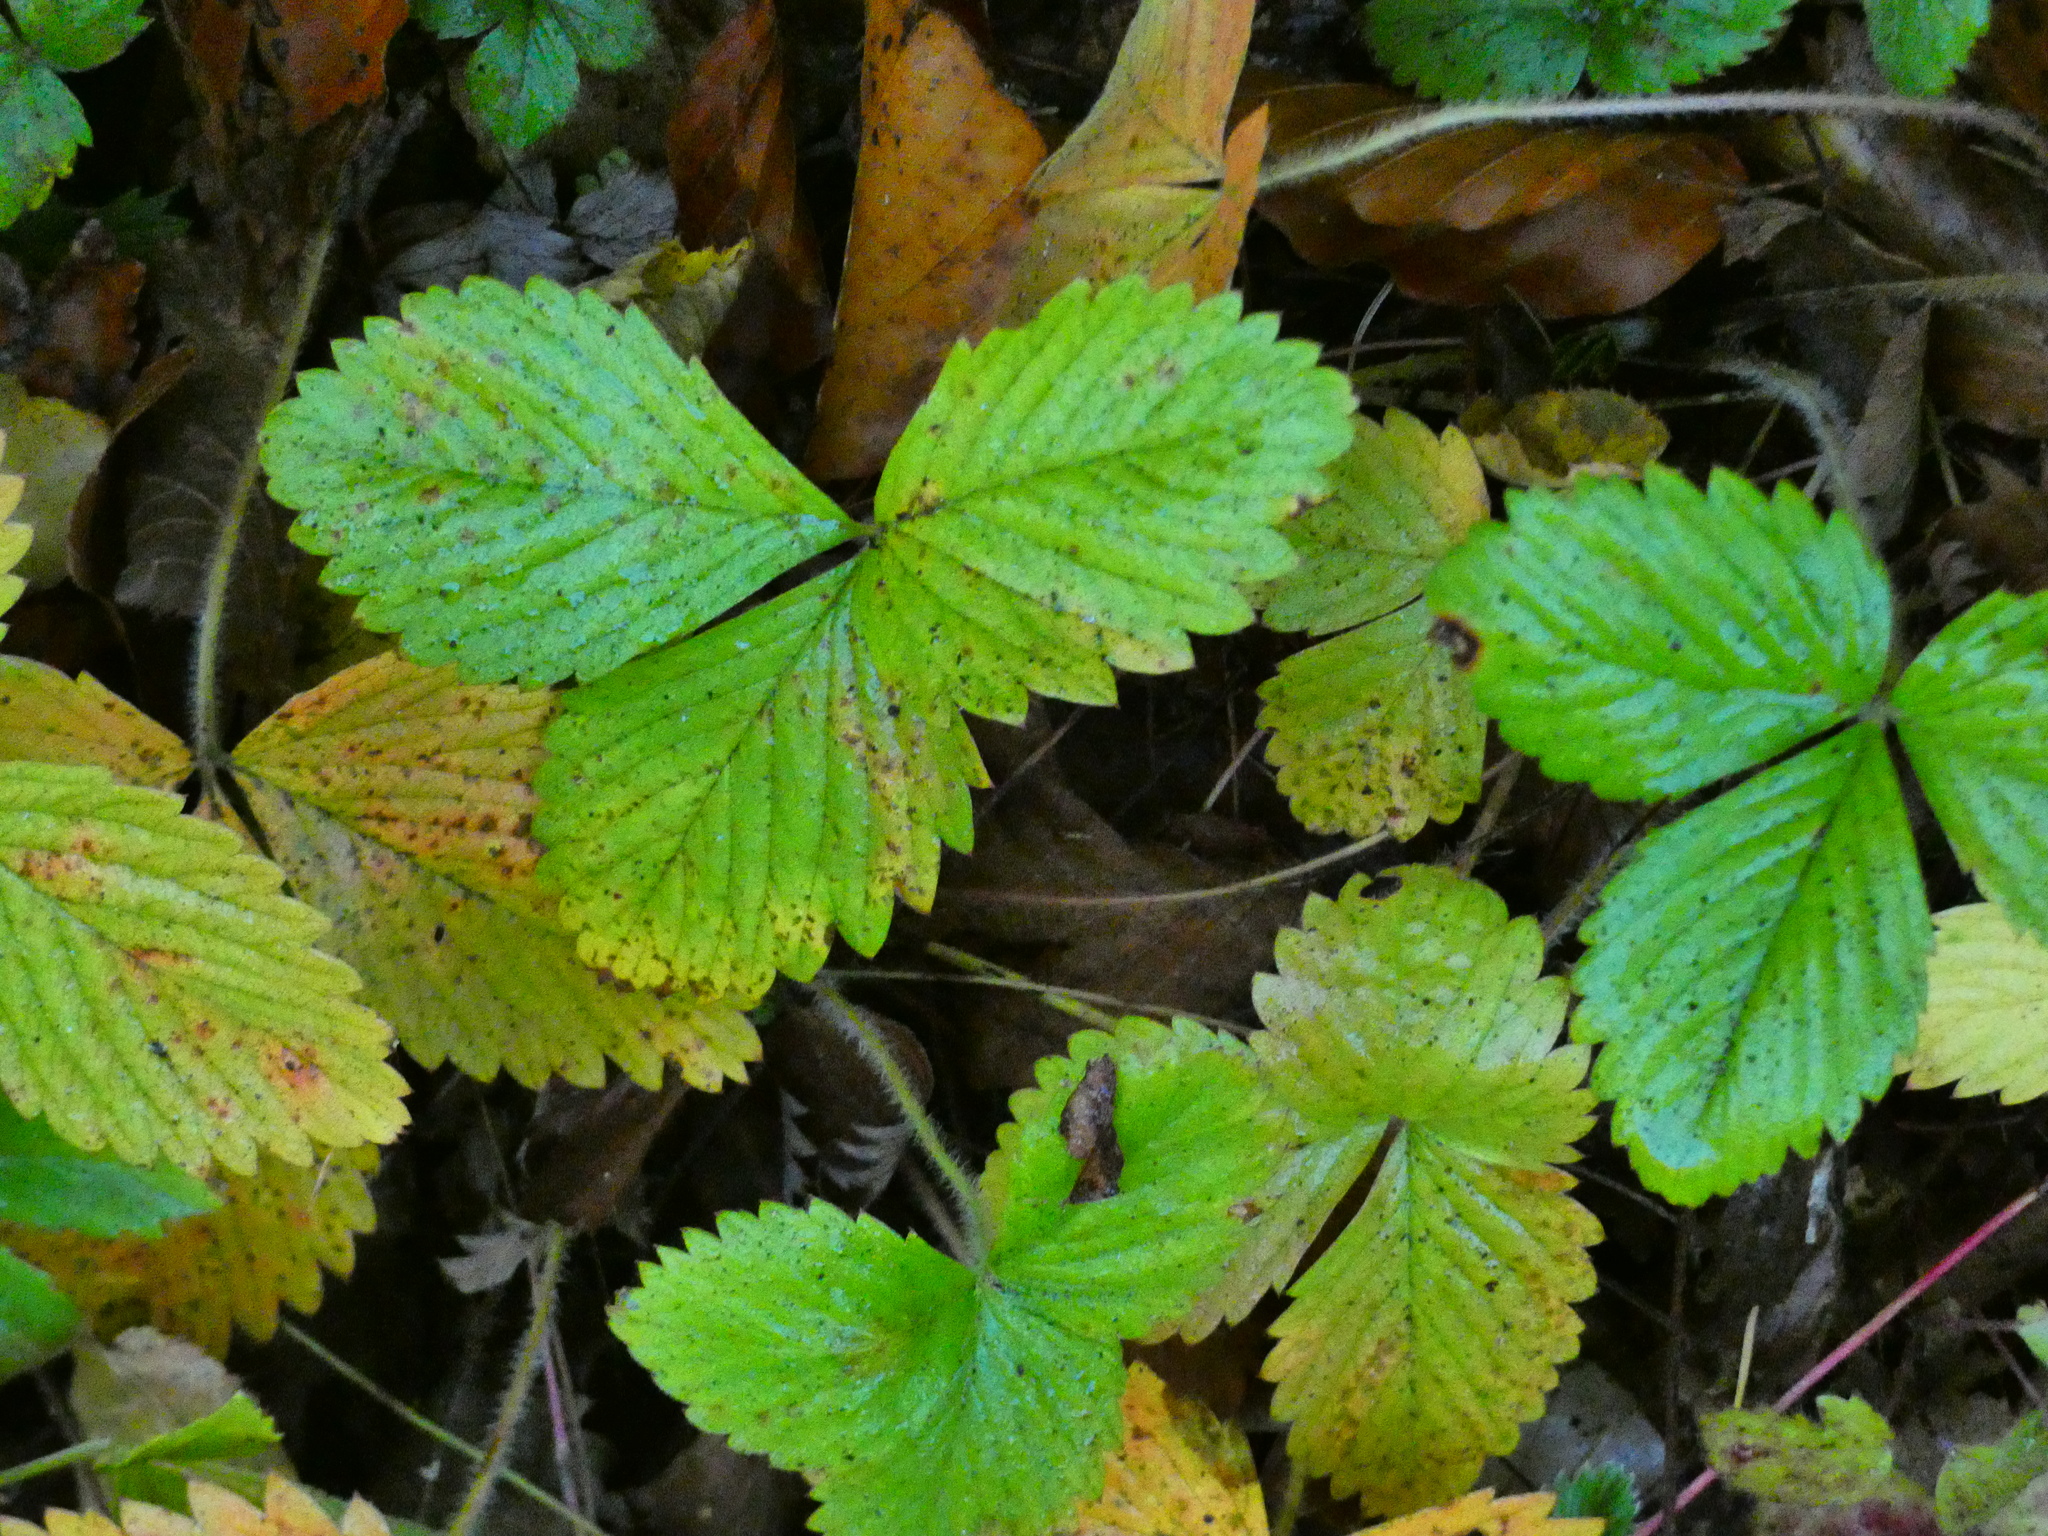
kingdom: Plantae
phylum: Tracheophyta
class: Magnoliopsida
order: Rosales
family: Rosaceae
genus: Fragaria
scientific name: Fragaria vesca
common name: Wild strawberry
